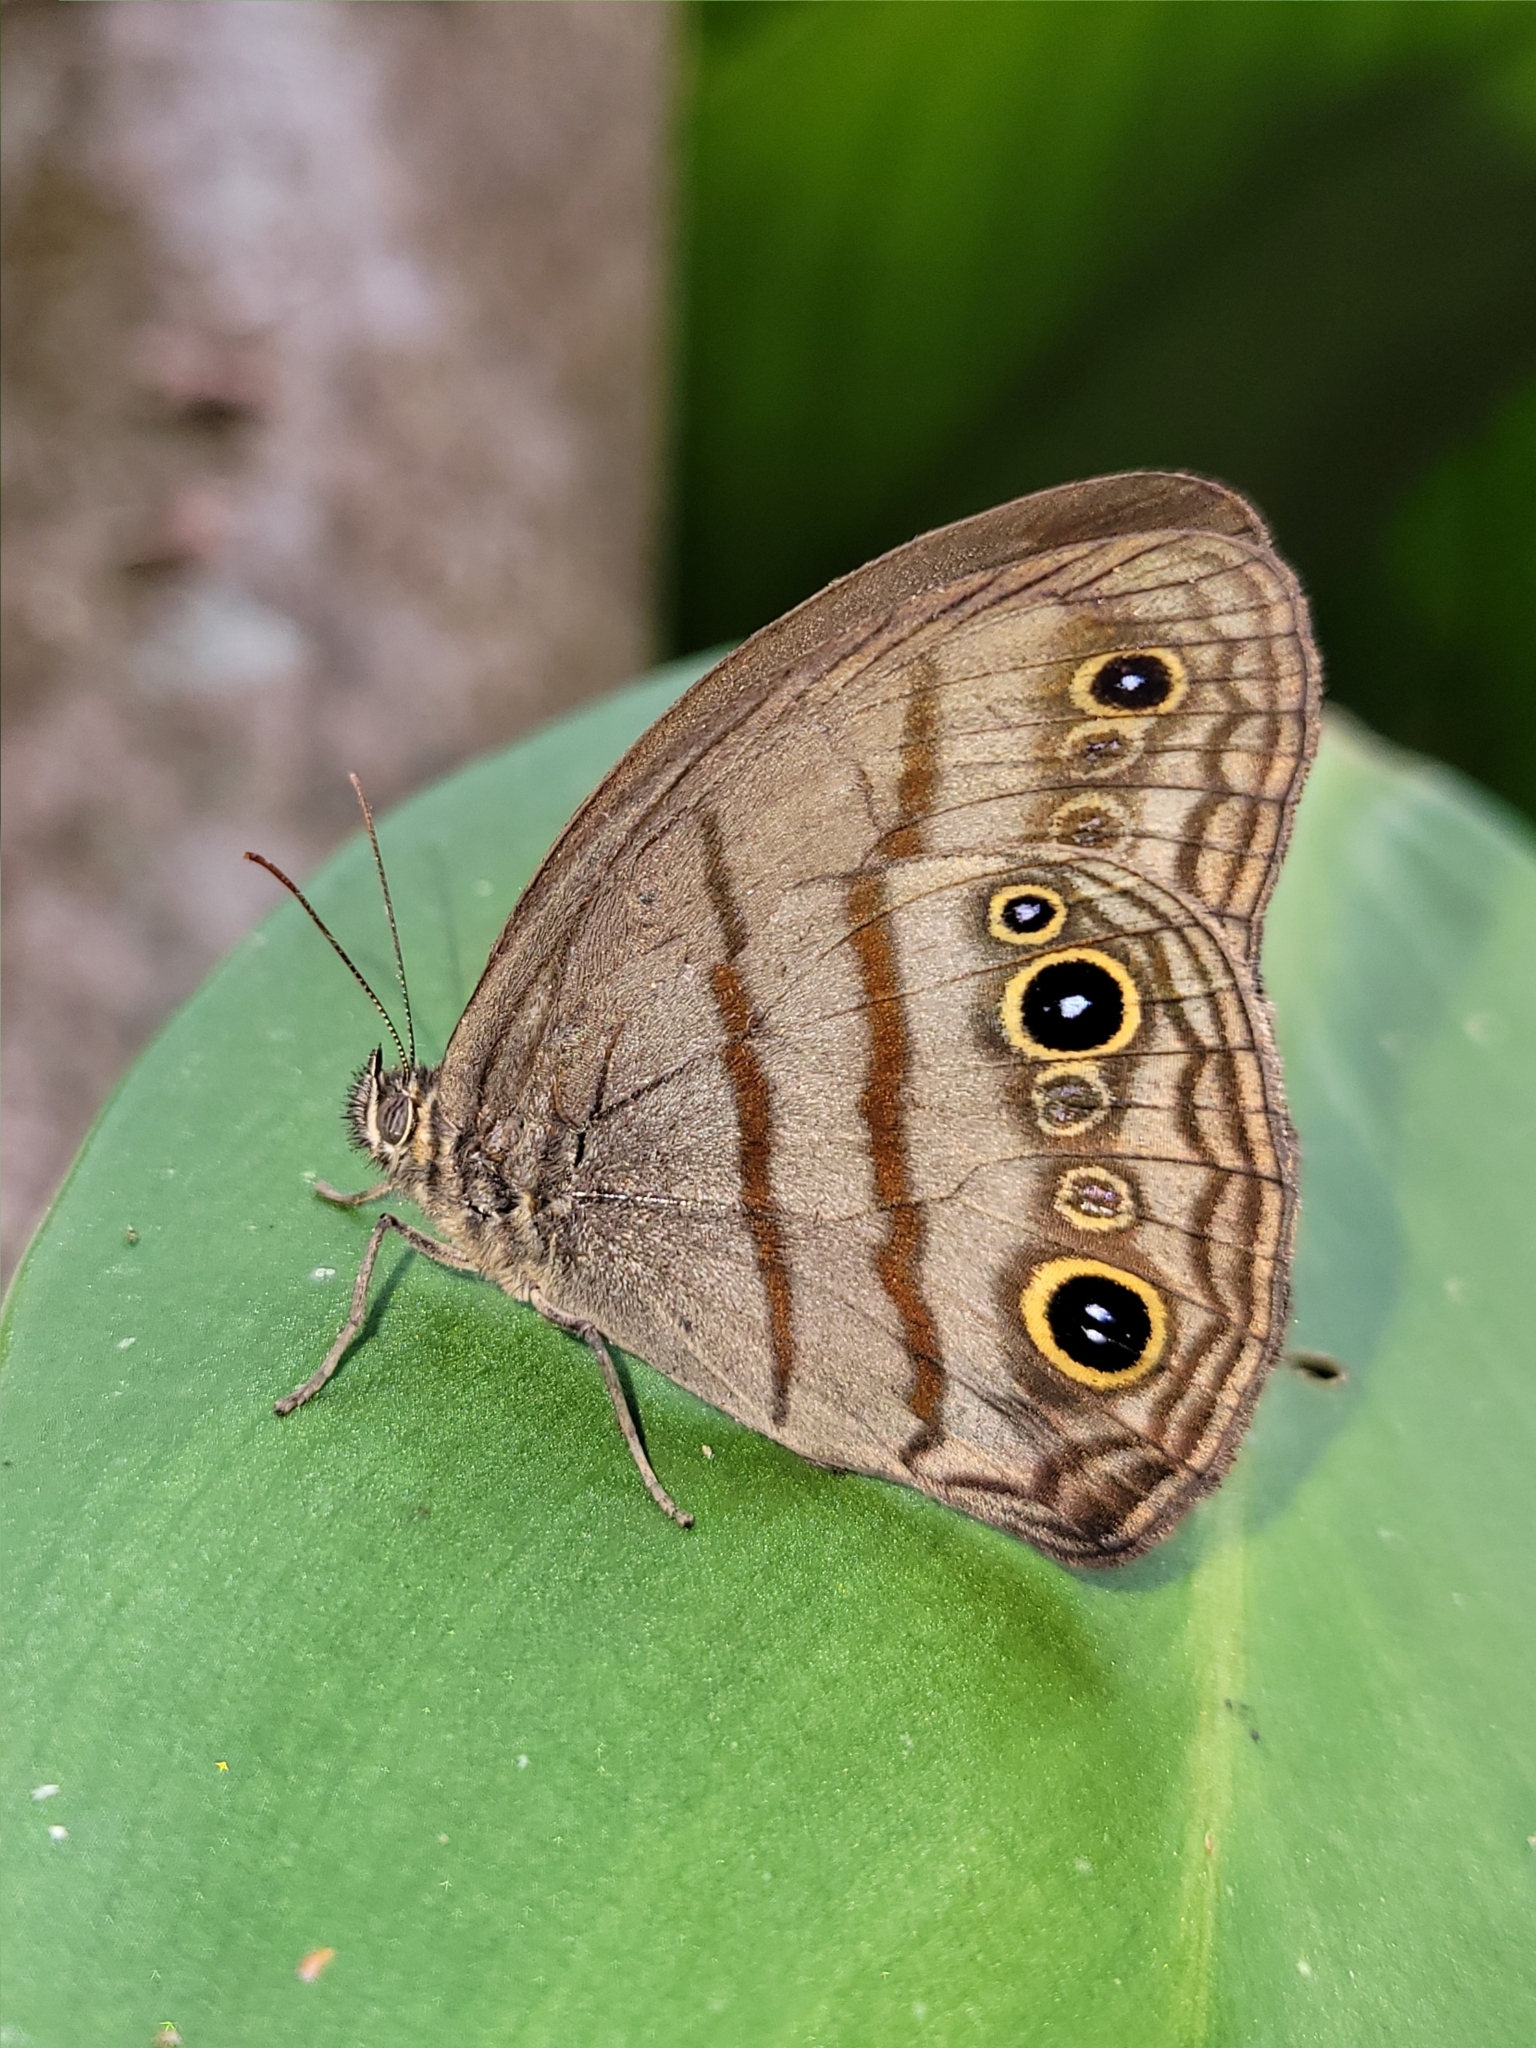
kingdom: Animalia
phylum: Arthropoda
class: Insecta
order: Lepidoptera
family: Nymphalidae
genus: Megeuptychia
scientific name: Megeuptychia antonoe
